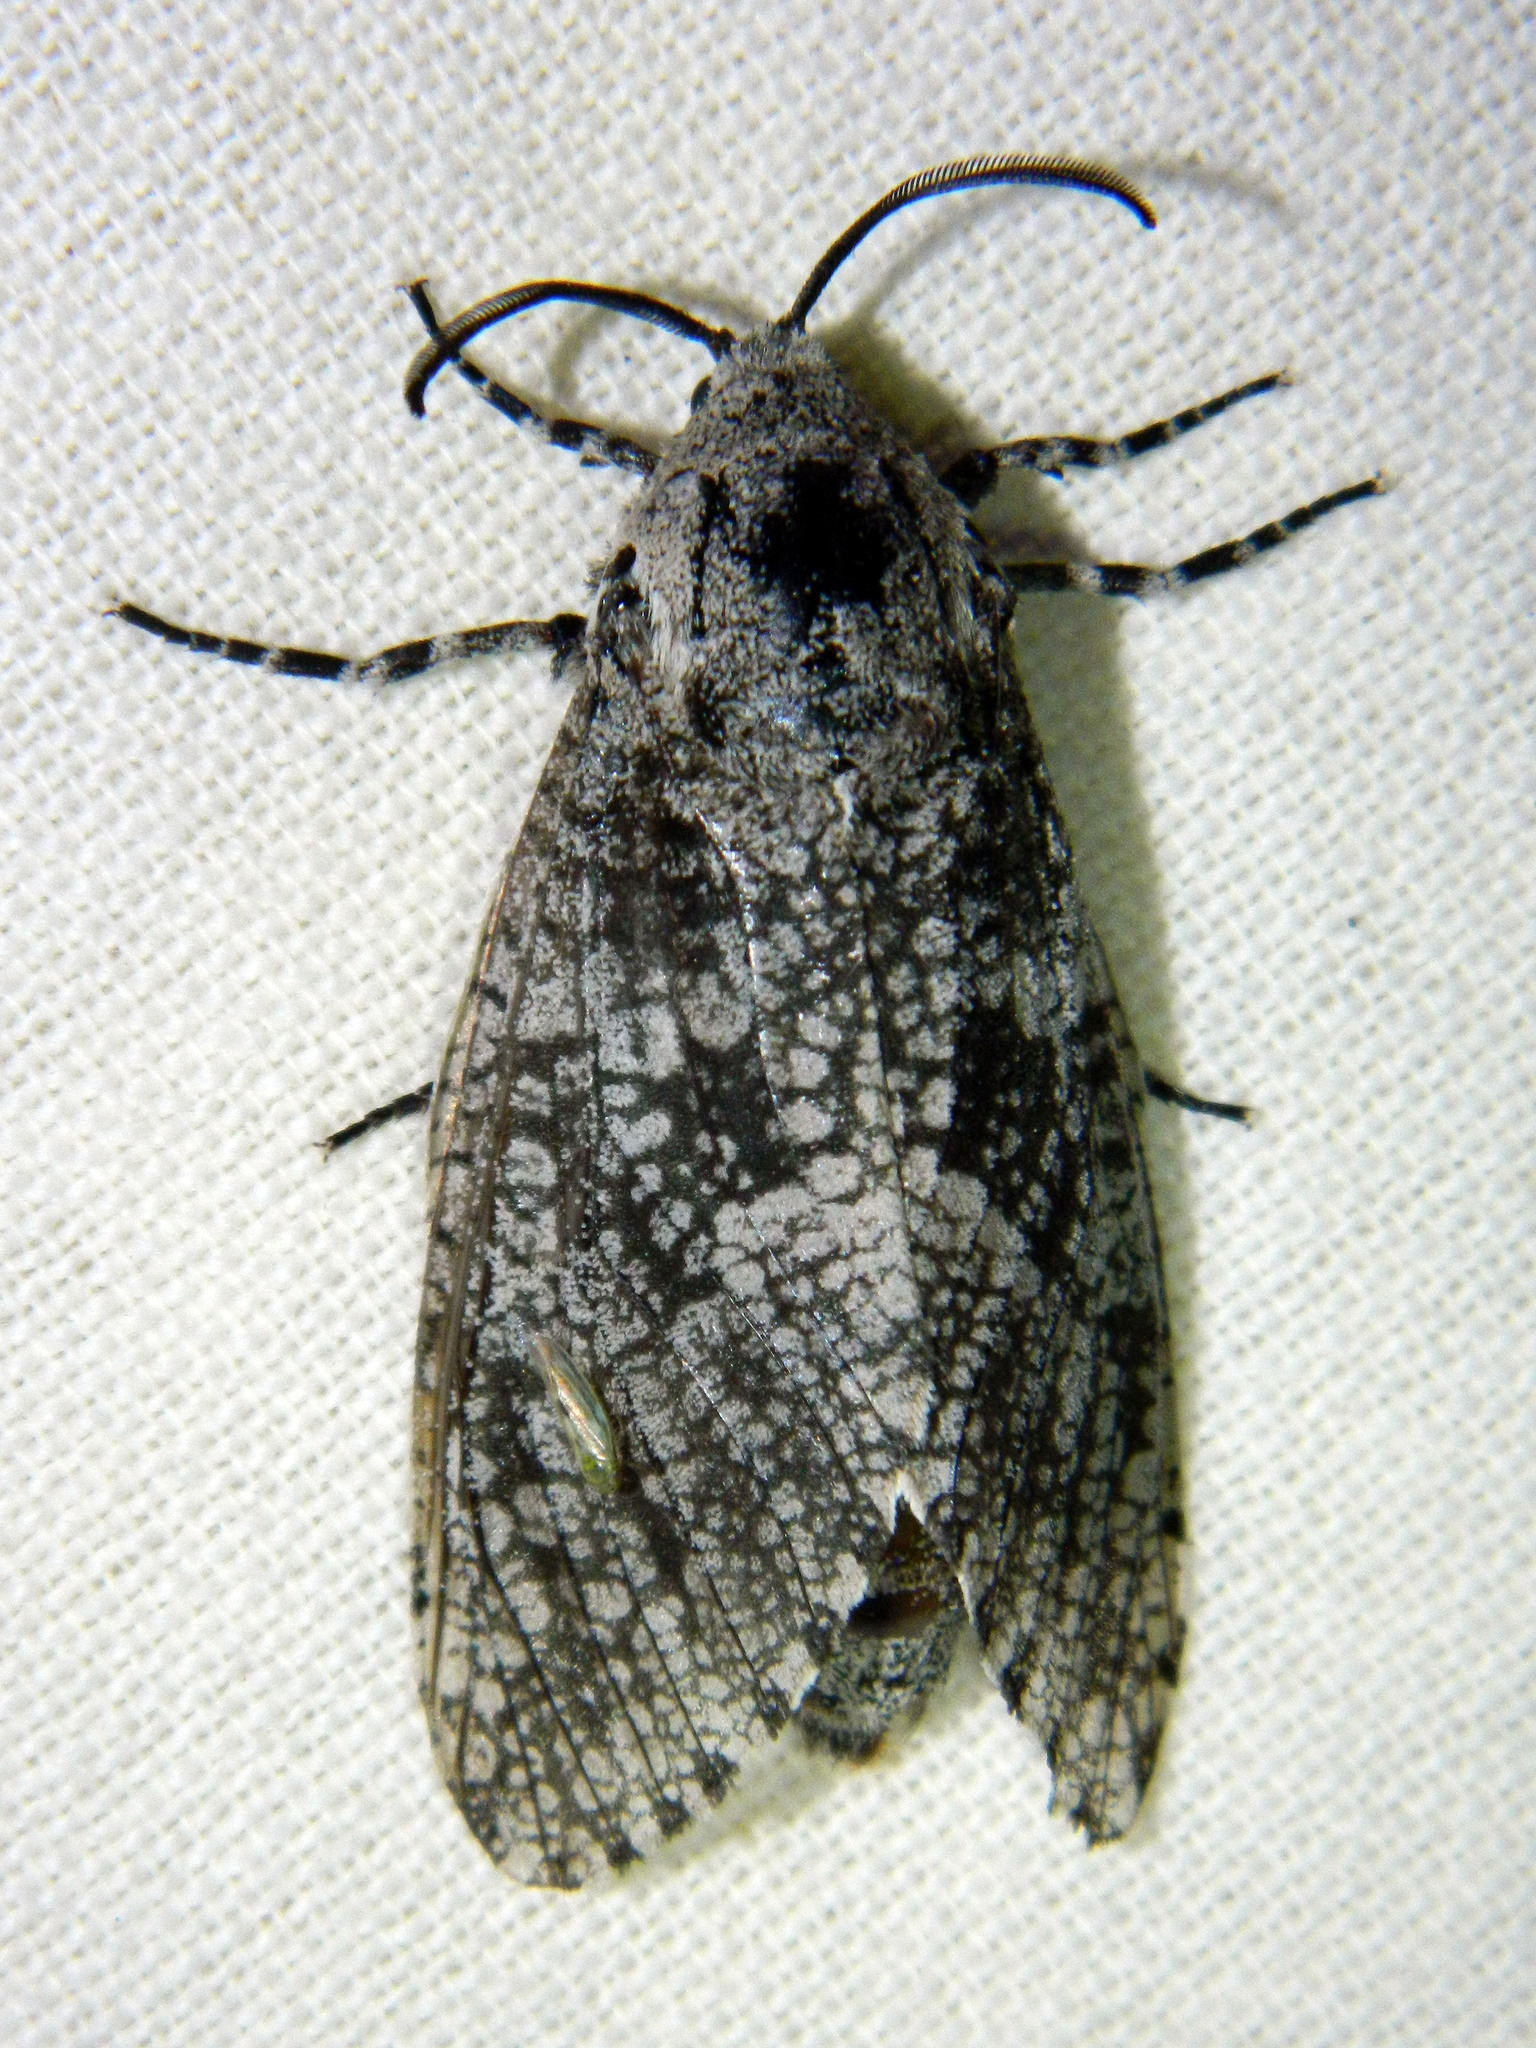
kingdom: Animalia
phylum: Arthropoda
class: Insecta
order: Lepidoptera
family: Cossidae
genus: Prionoxystus
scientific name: Prionoxystus robiniae
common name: Carpenterworm
